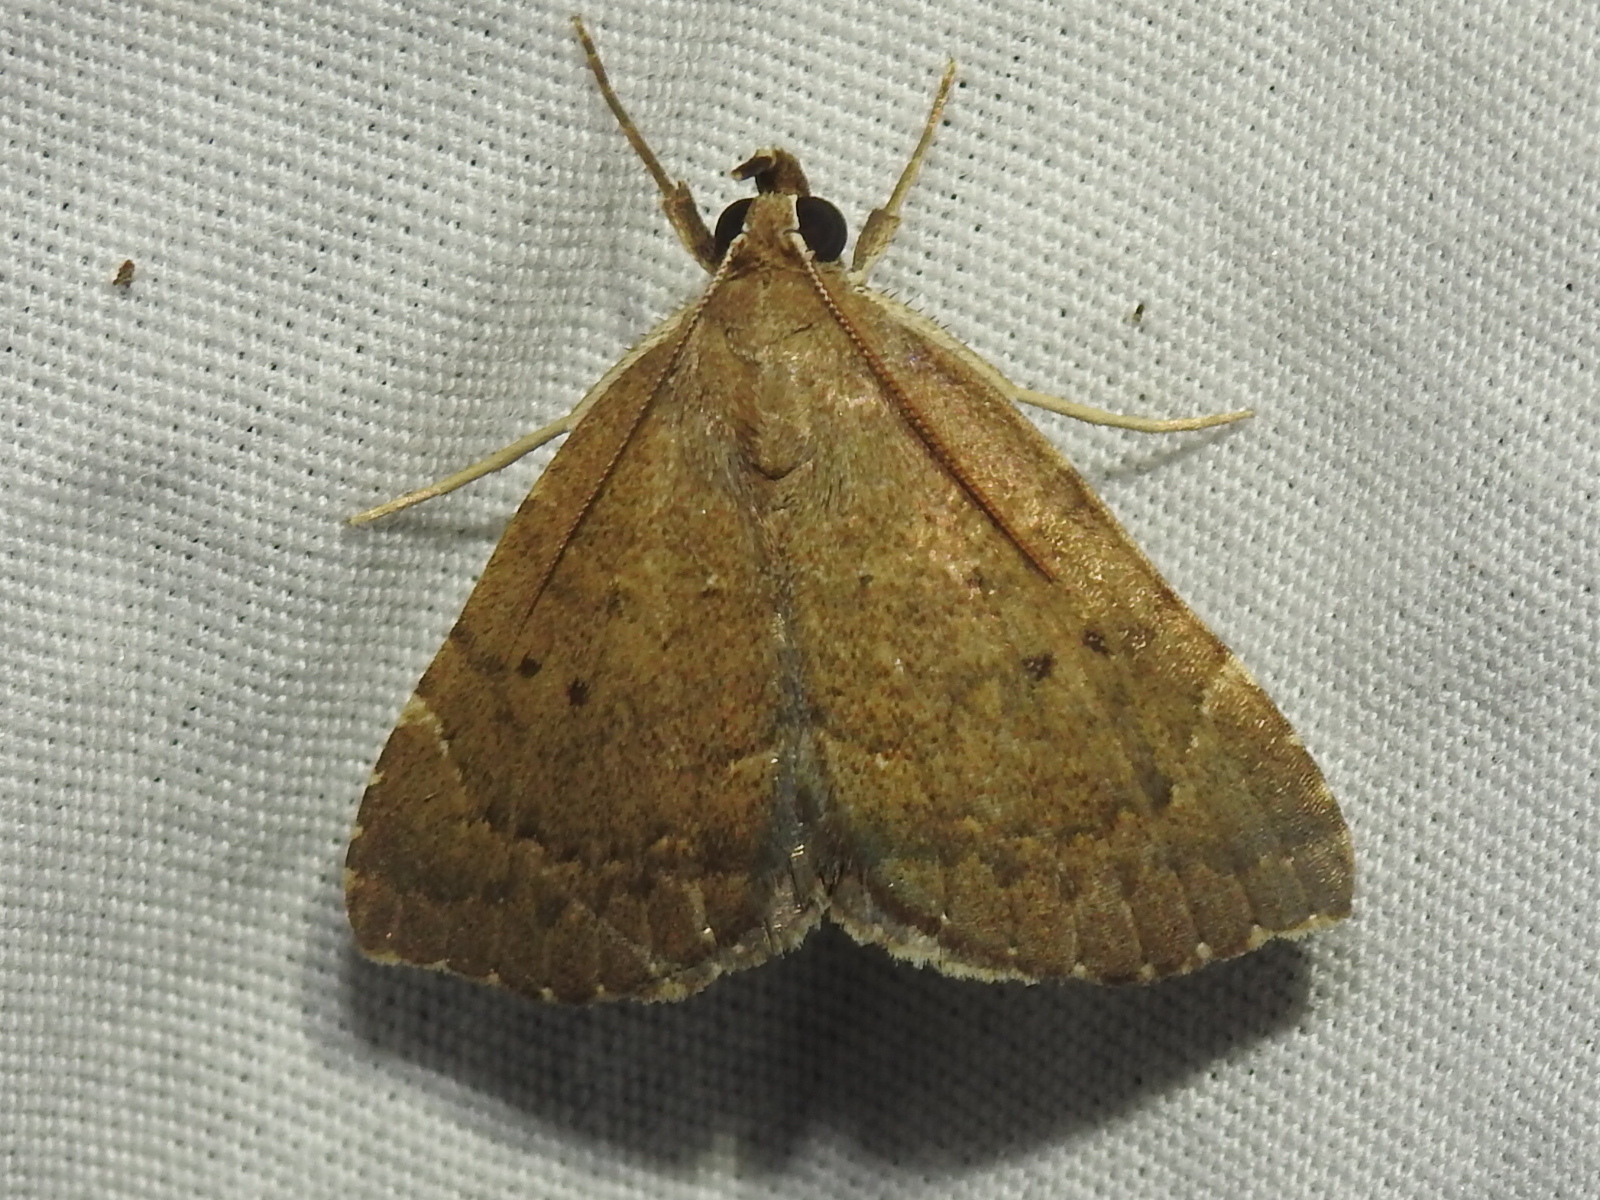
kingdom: Animalia
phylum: Arthropoda
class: Insecta
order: Lepidoptera
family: Erebidae
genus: Focillidia
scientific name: Focillidia texana
